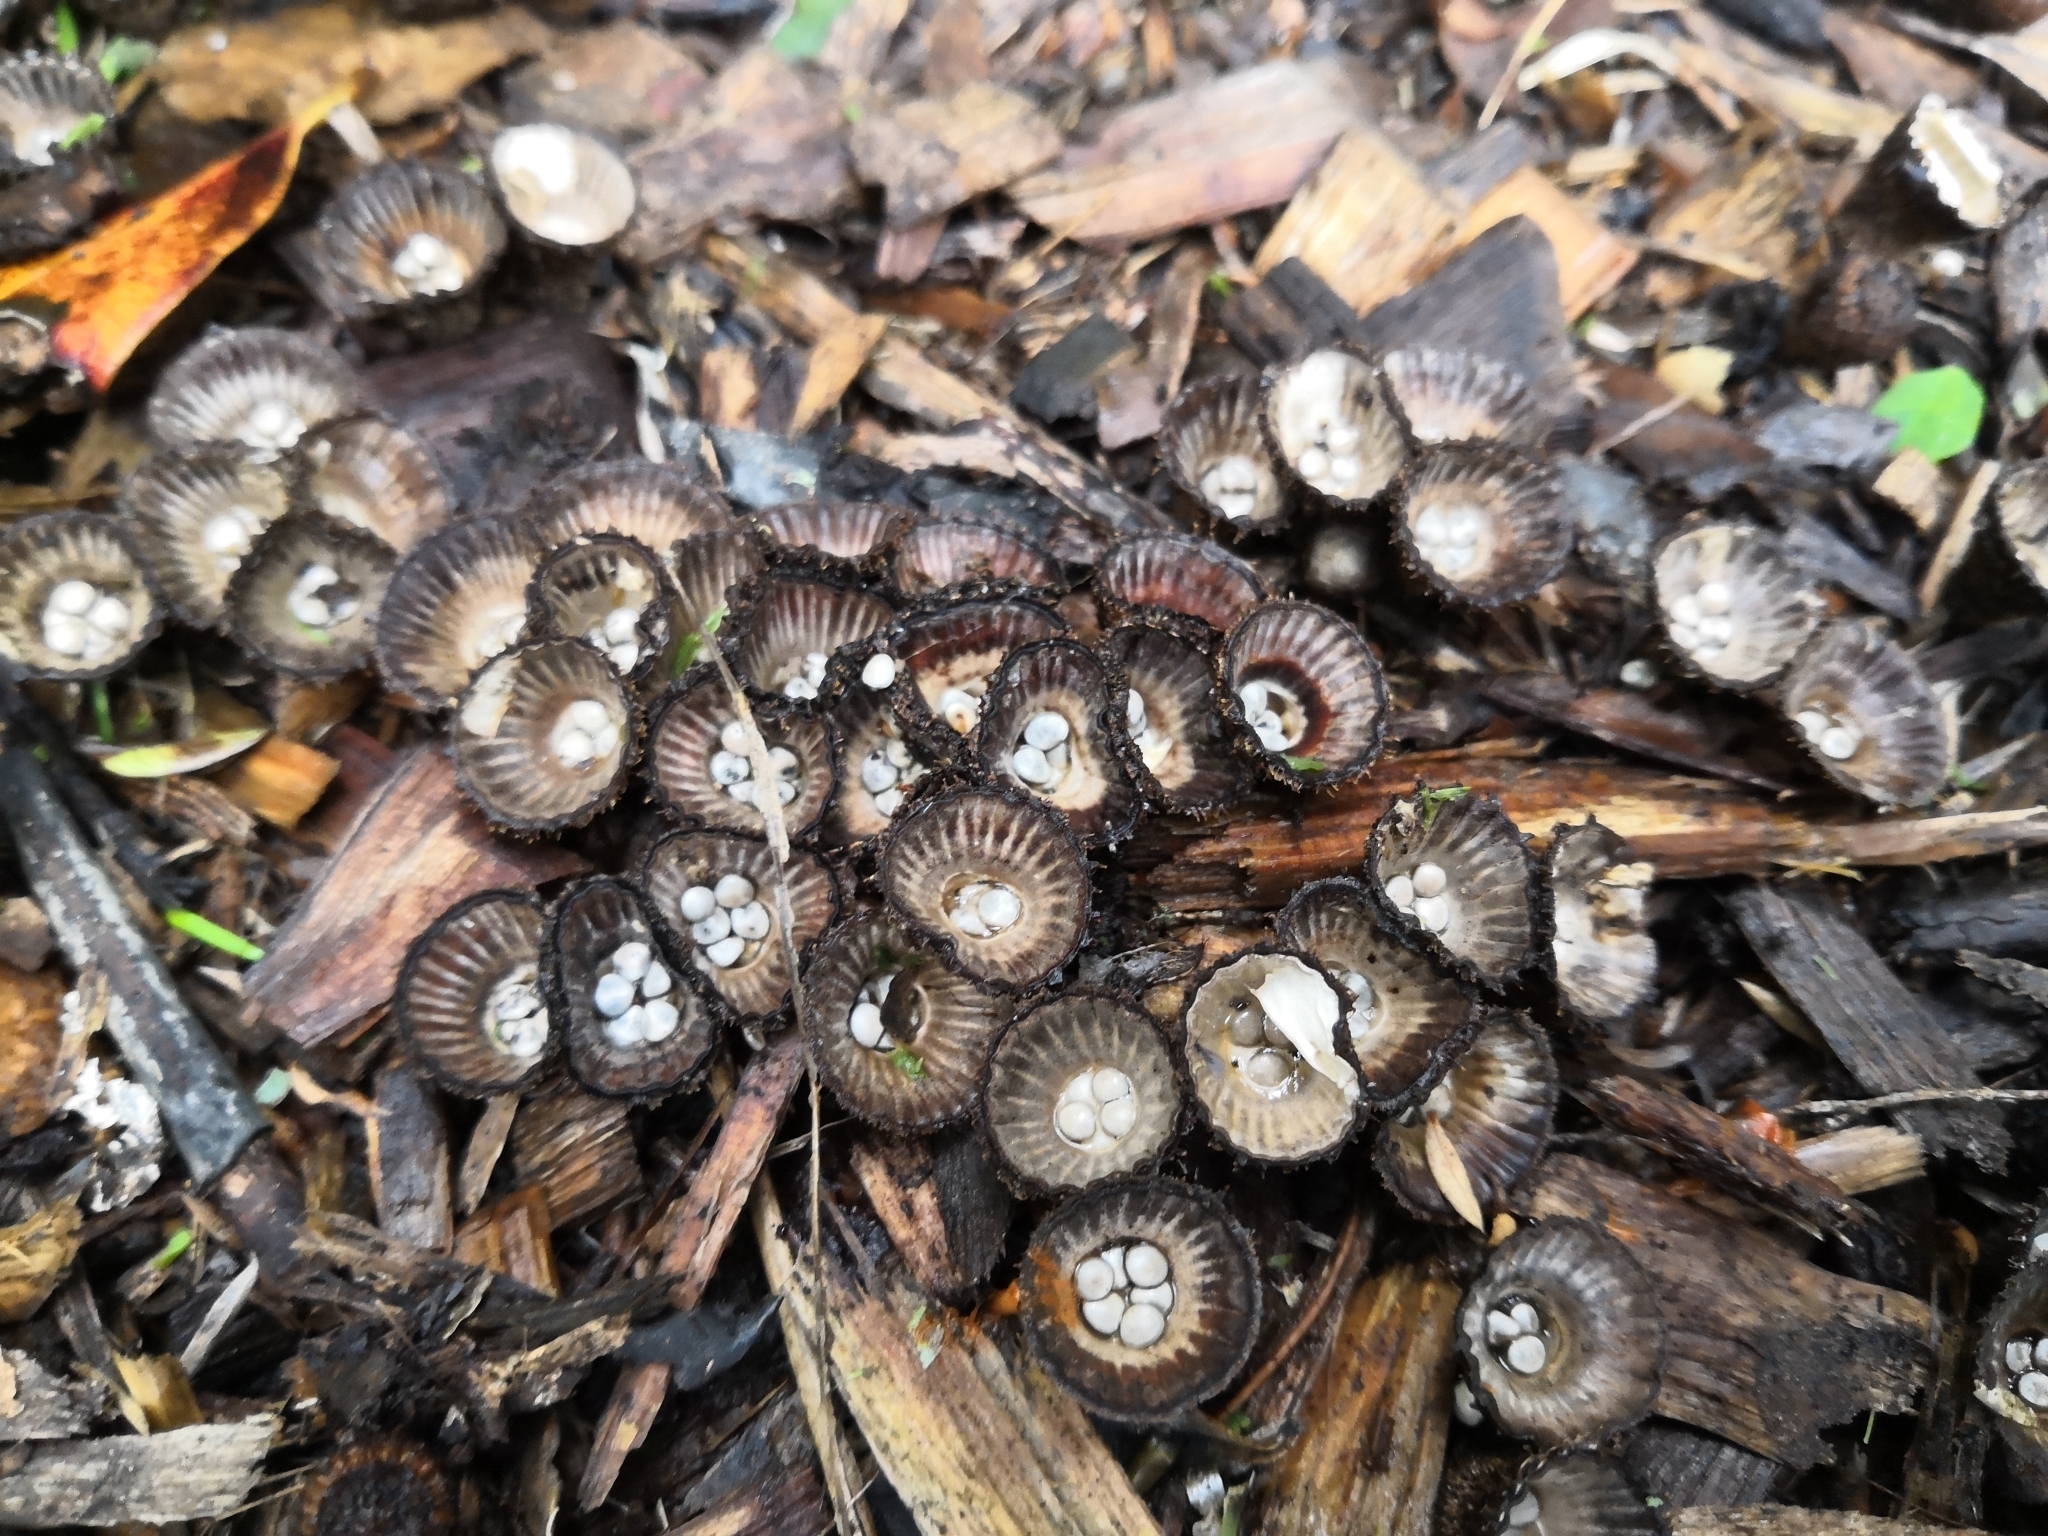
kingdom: Fungi
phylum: Basidiomycota
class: Agaricomycetes
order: Agaricales
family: Agaricaceae
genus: Cyathus
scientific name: Cyathus striatus
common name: Fluted bird's nest
